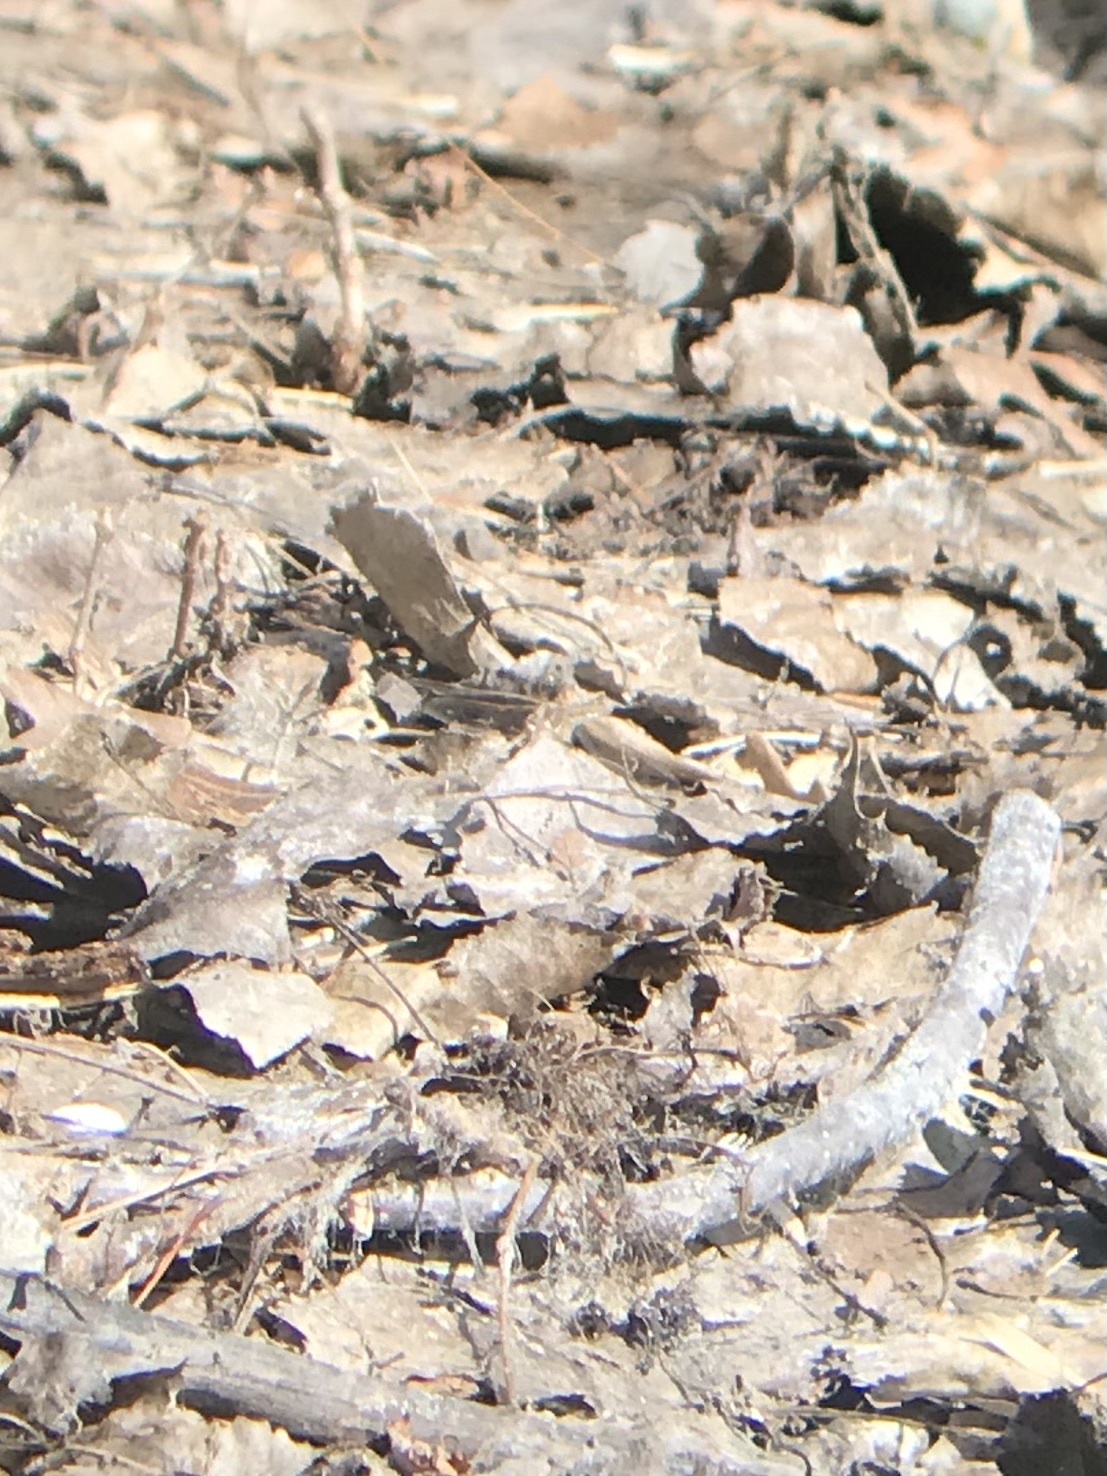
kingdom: Animalia
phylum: Arthropoda
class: Insecta
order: Odonata
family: Libellulidae
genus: Sympetrum
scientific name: Sympetrum corruptum
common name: Variegated meadowhawk
